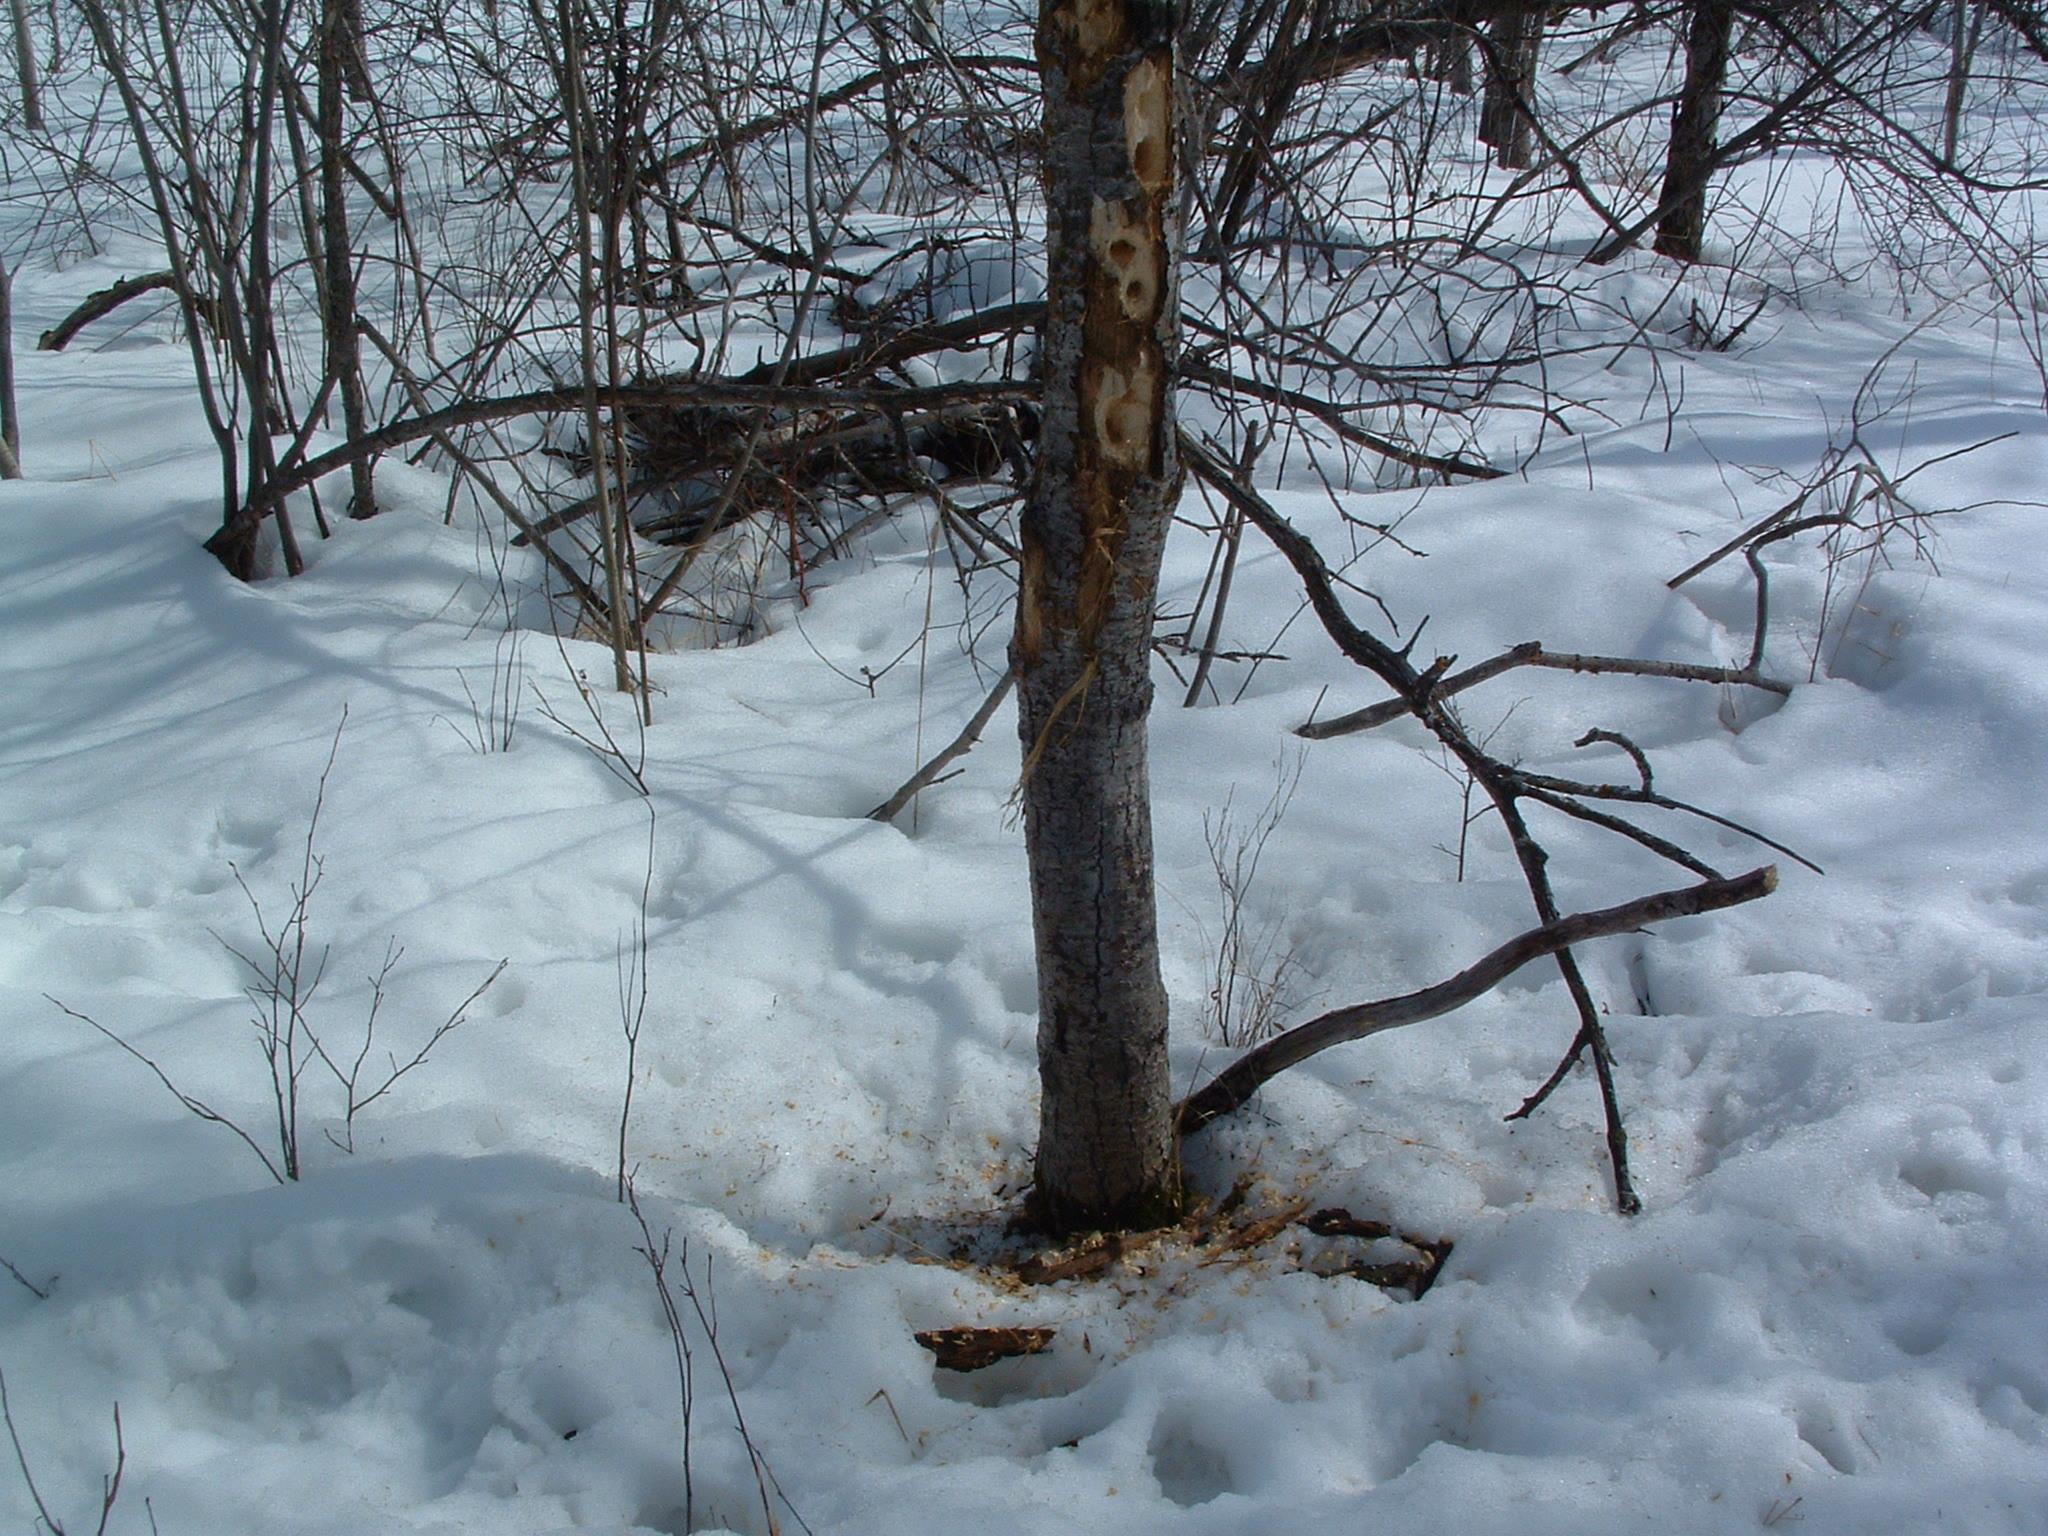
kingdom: Animalia
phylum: Chordata
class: Aves
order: Piciformes
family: Picidae
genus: Dryocopus
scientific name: Dryocopus pileatus
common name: Pileated woodpecker
